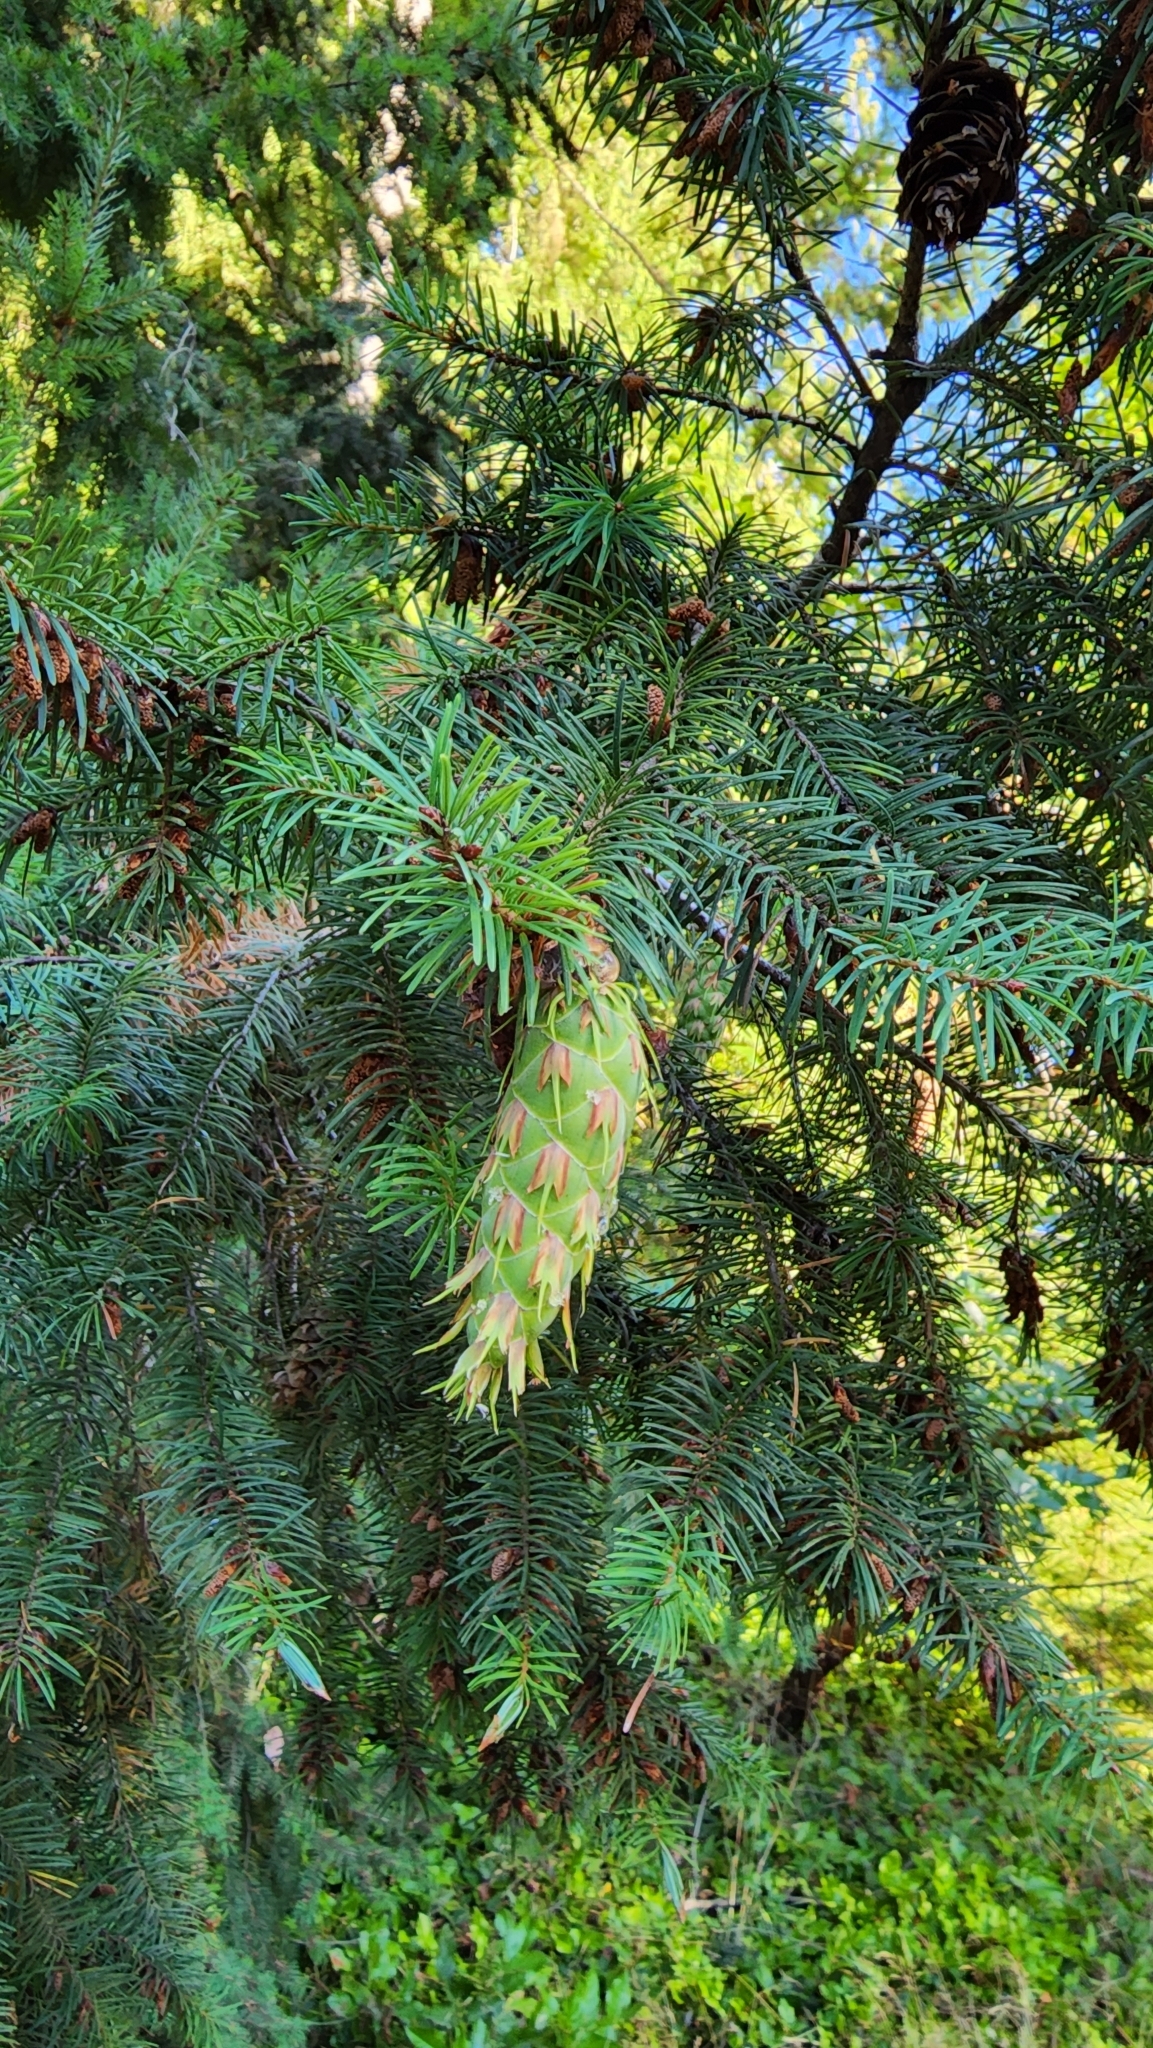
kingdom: Plantae
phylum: Tracheophyta
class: Pinopsida
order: Pinales
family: Pinaceae
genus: Pseudotsuga
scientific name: Pseudotsuga menziesii
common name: Douglas fir
